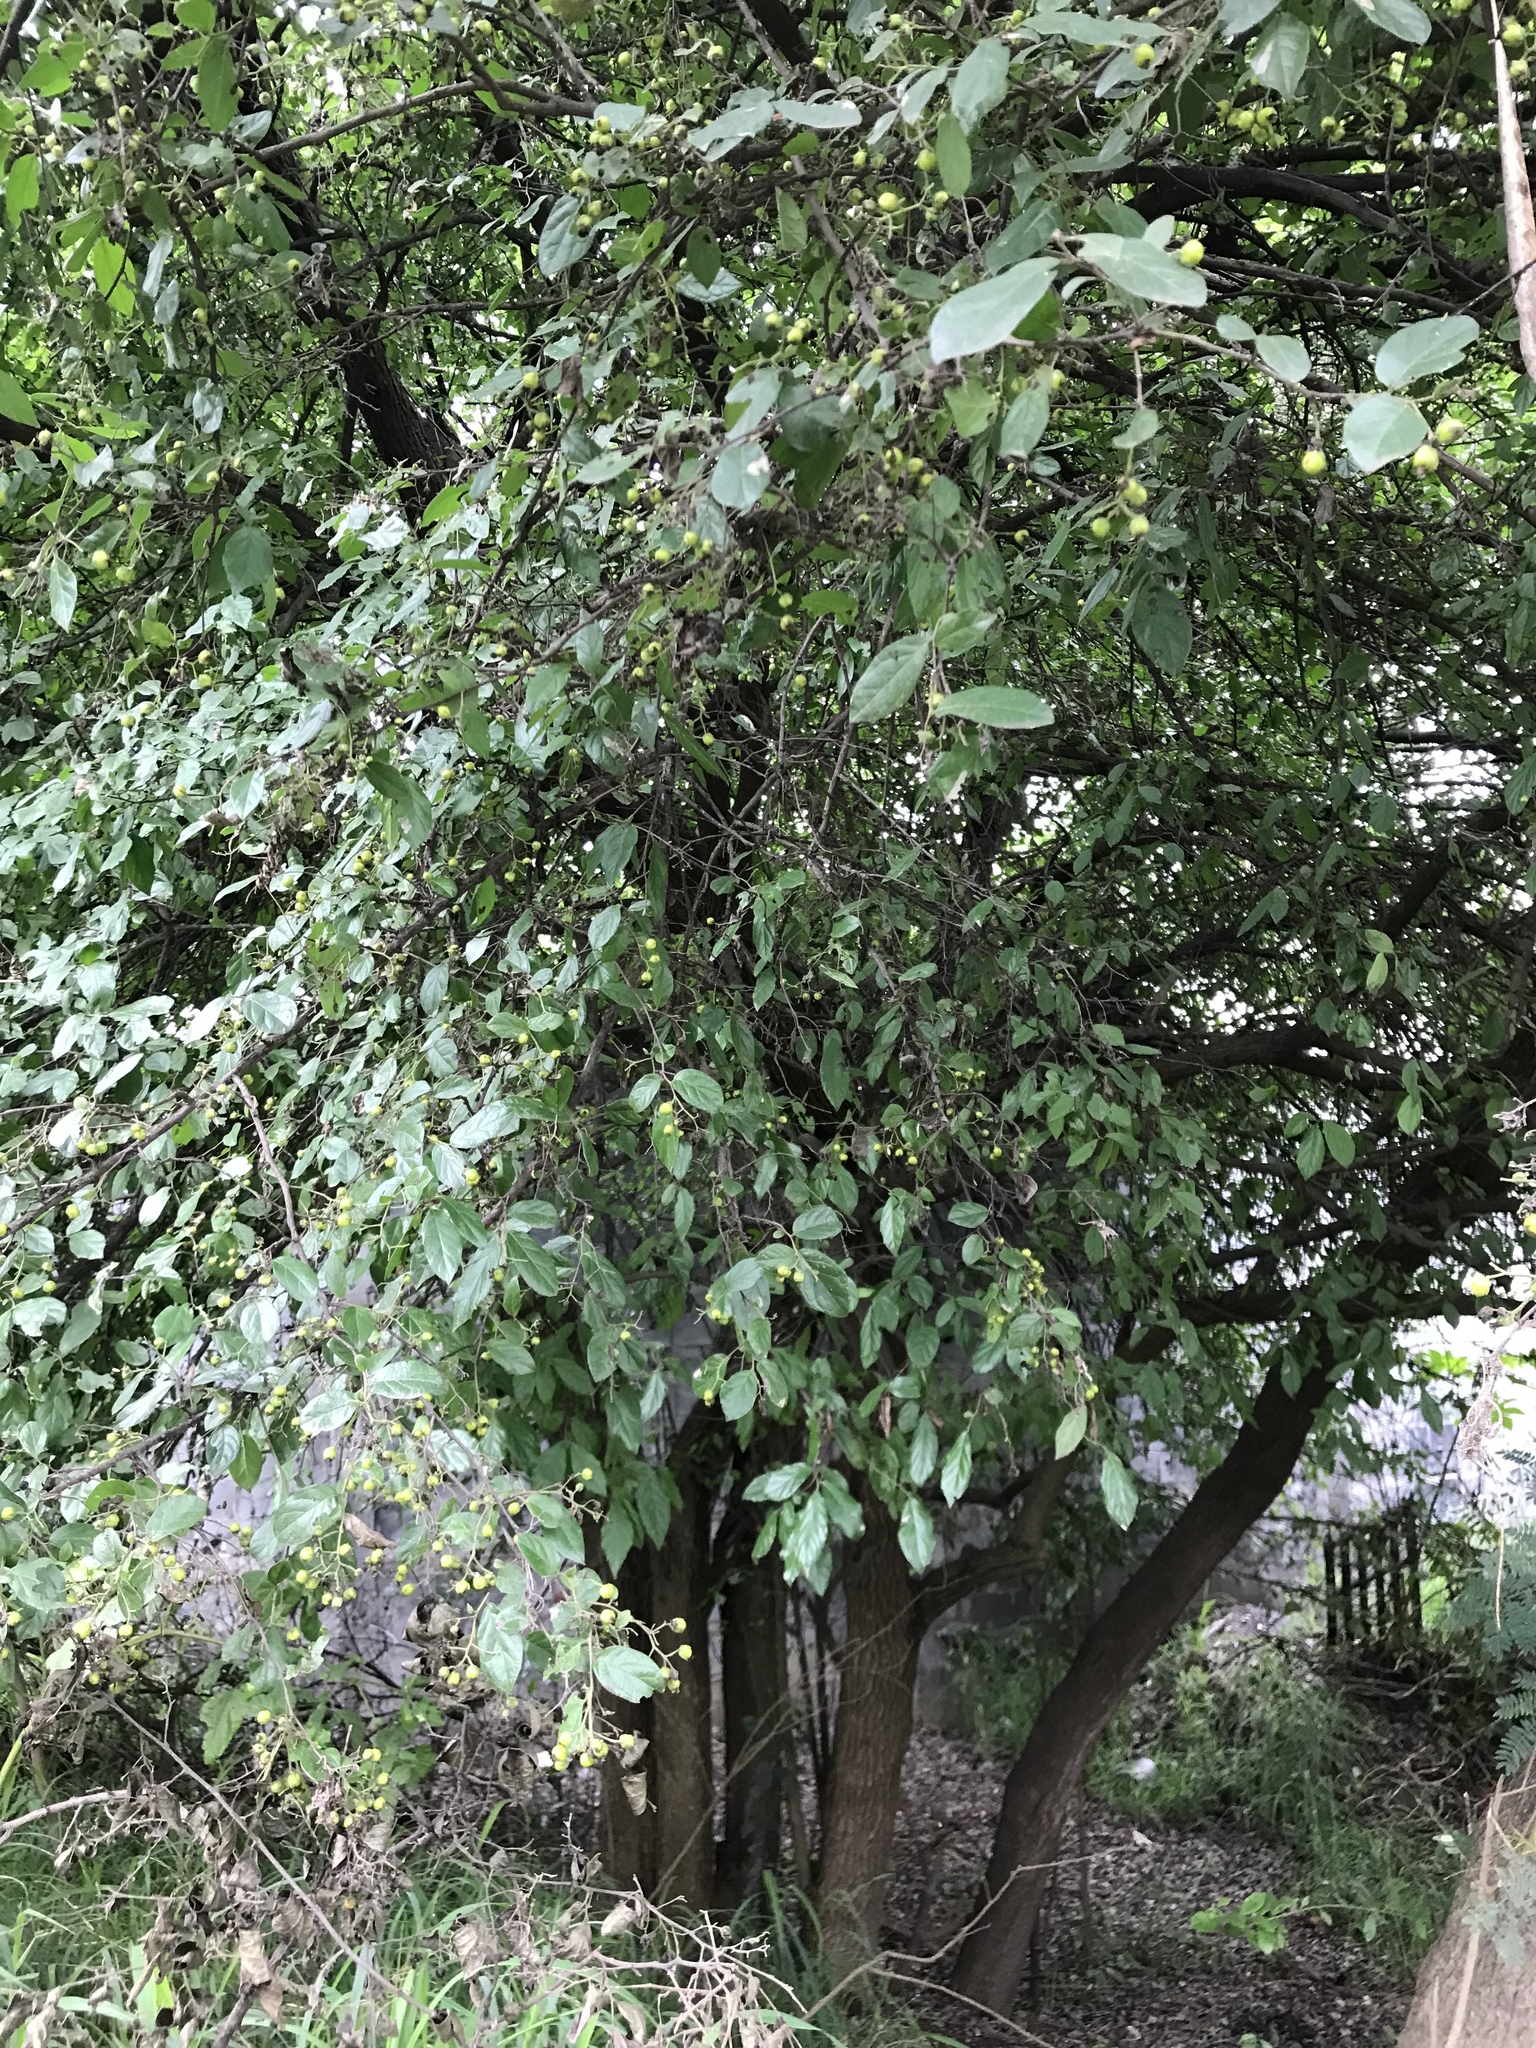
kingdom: Plantae
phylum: Tracheophyta
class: Magnoliopsida
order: Boraginales
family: Ehretiaceae
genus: Ehretia
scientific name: Ehretia anacua
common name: Sugarberry
